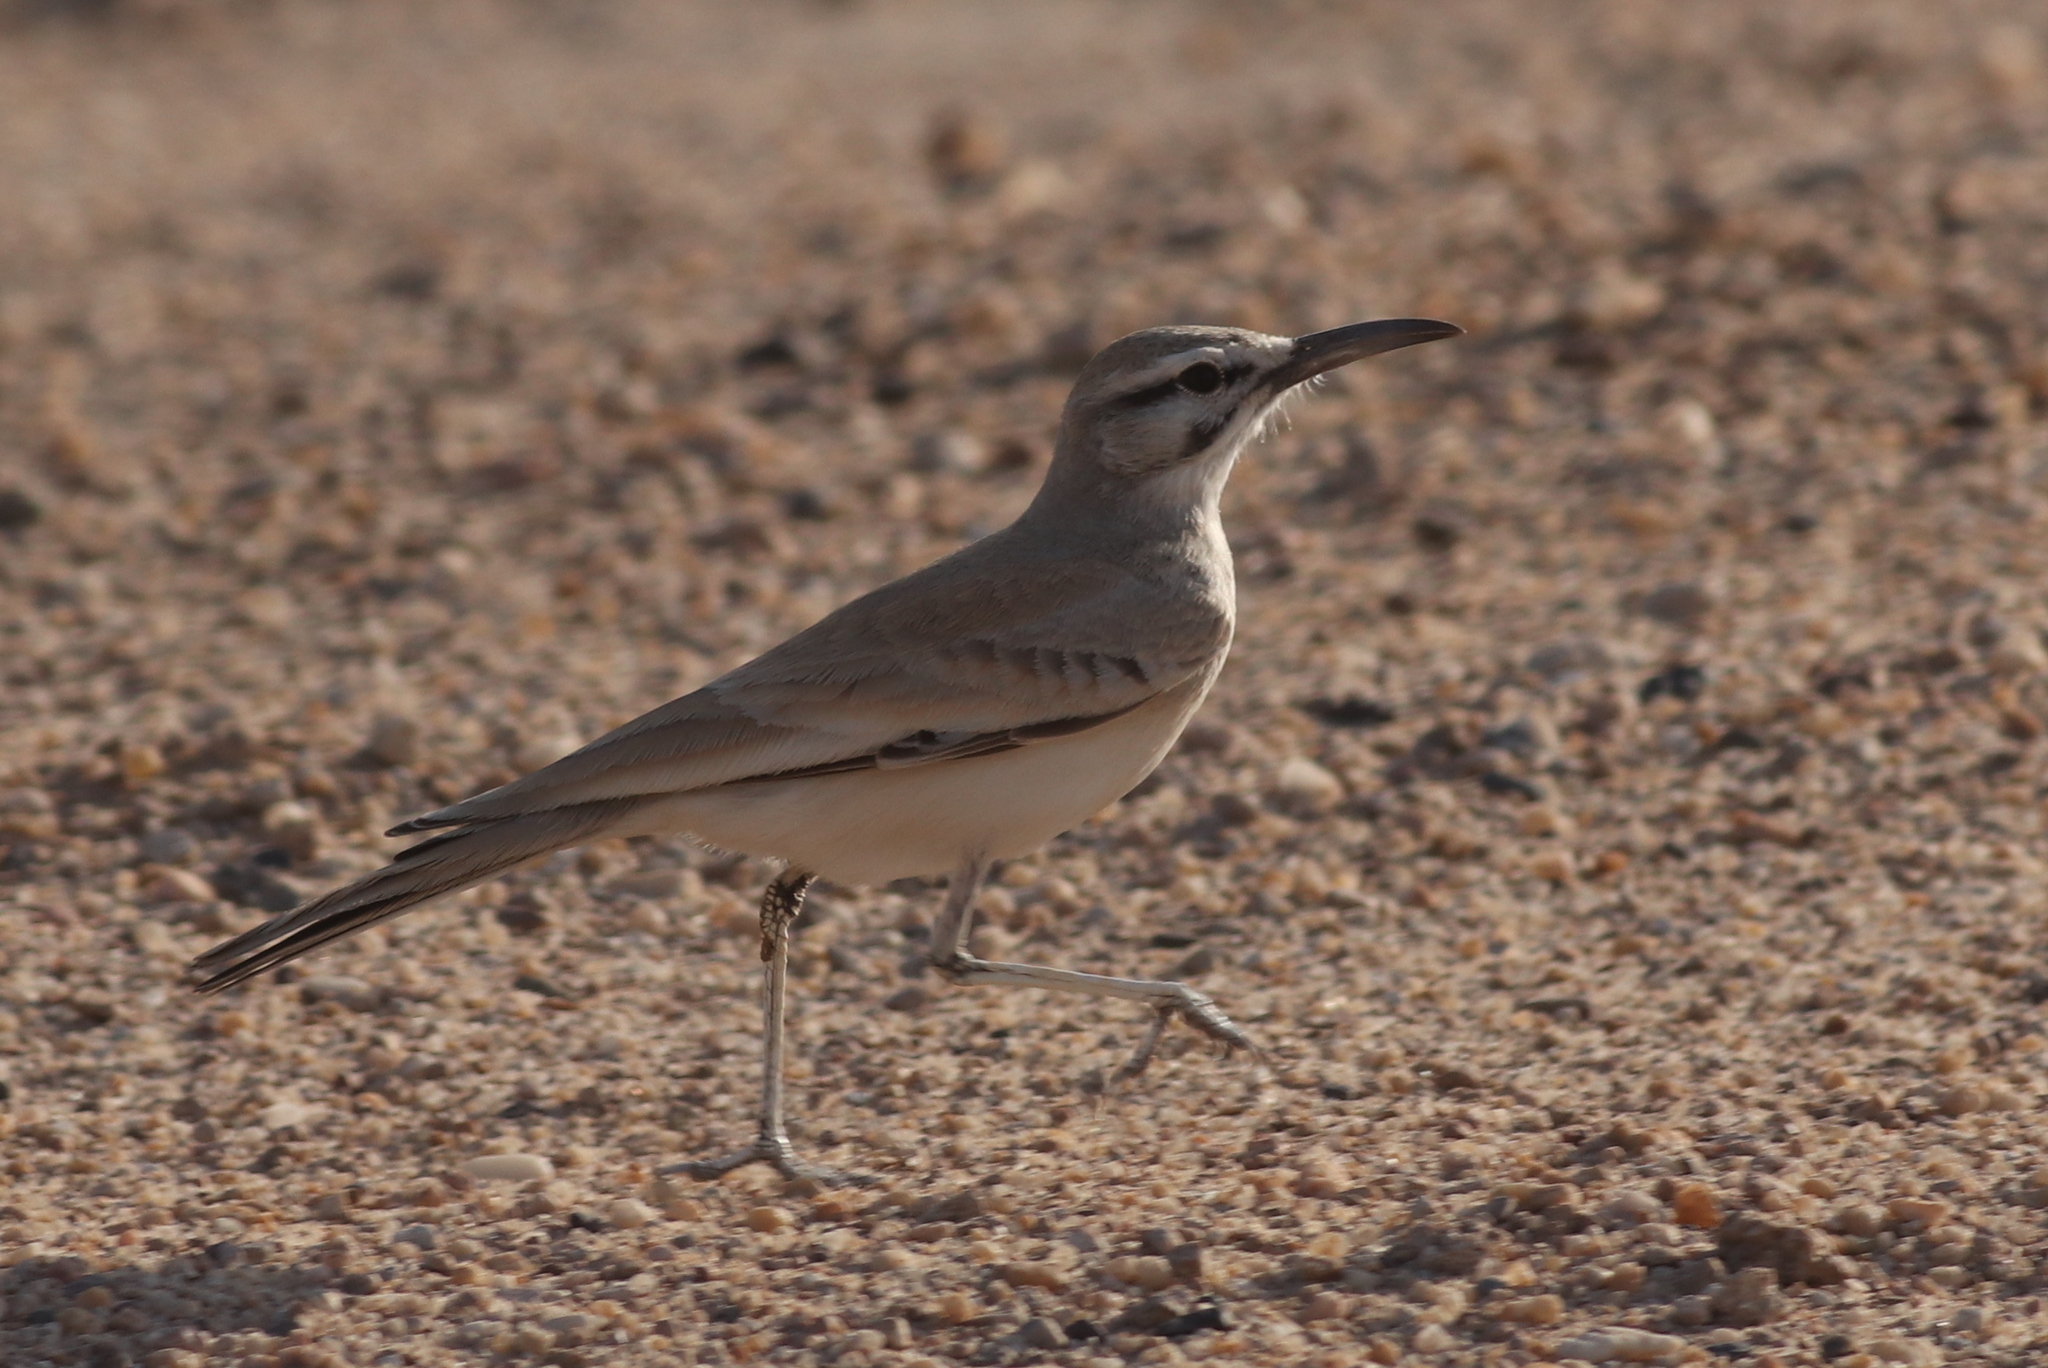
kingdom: Animalia
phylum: Chordata
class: Aves
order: Passeriformes
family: Alaudidae
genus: Alaemon
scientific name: Alaemon alaudipes
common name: Greater hoopoe-lark
